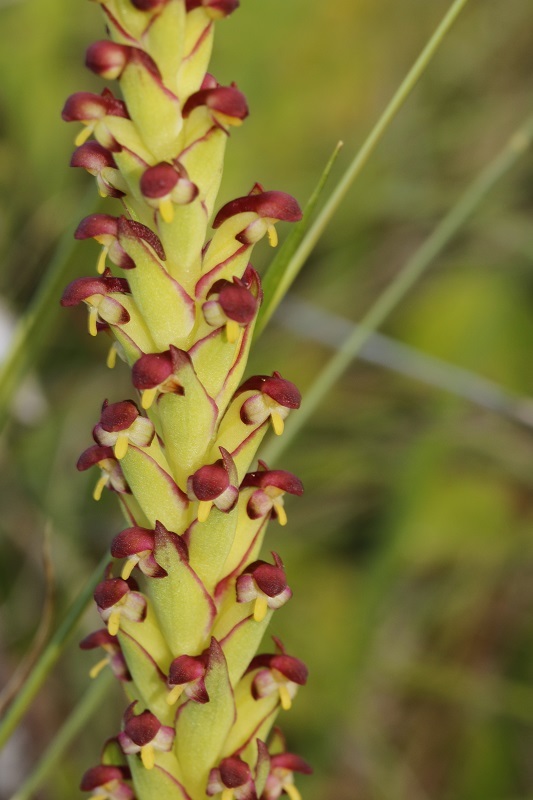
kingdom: Plantae
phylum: Tracheophyta
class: Liliopsida
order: Asparagales
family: Orchidaceae
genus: Disa
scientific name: Disa bracteata
